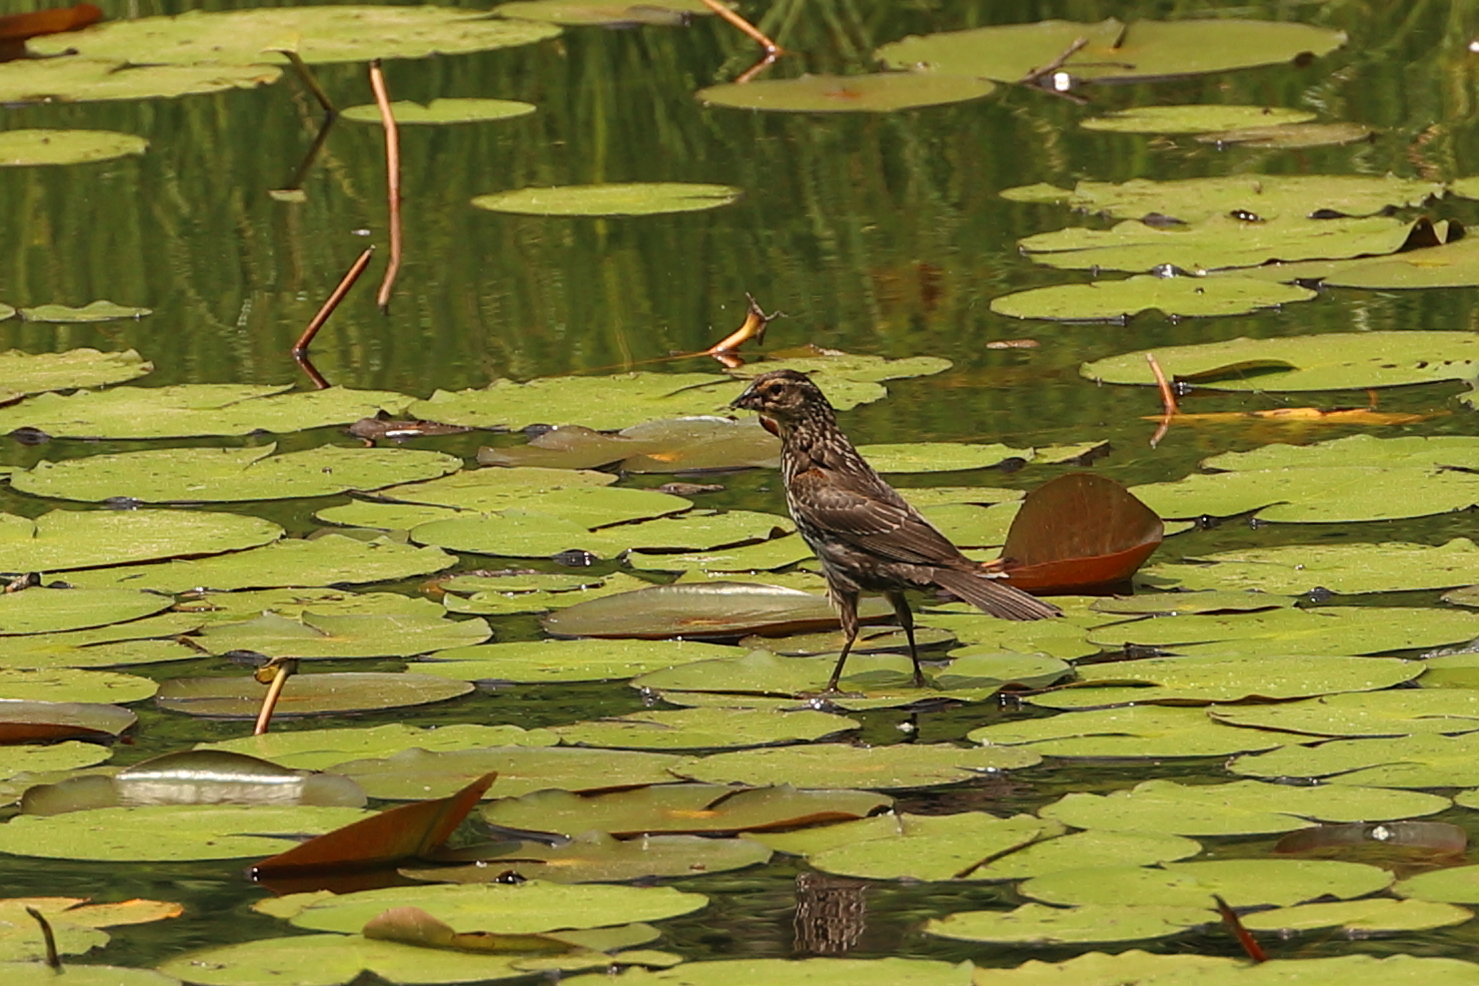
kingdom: Animalia
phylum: Chordata
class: Aves
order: Passeriformes
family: Icteridae
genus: Agelaius
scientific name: Agelaius phoeniceus
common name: Red-winged blackbird
